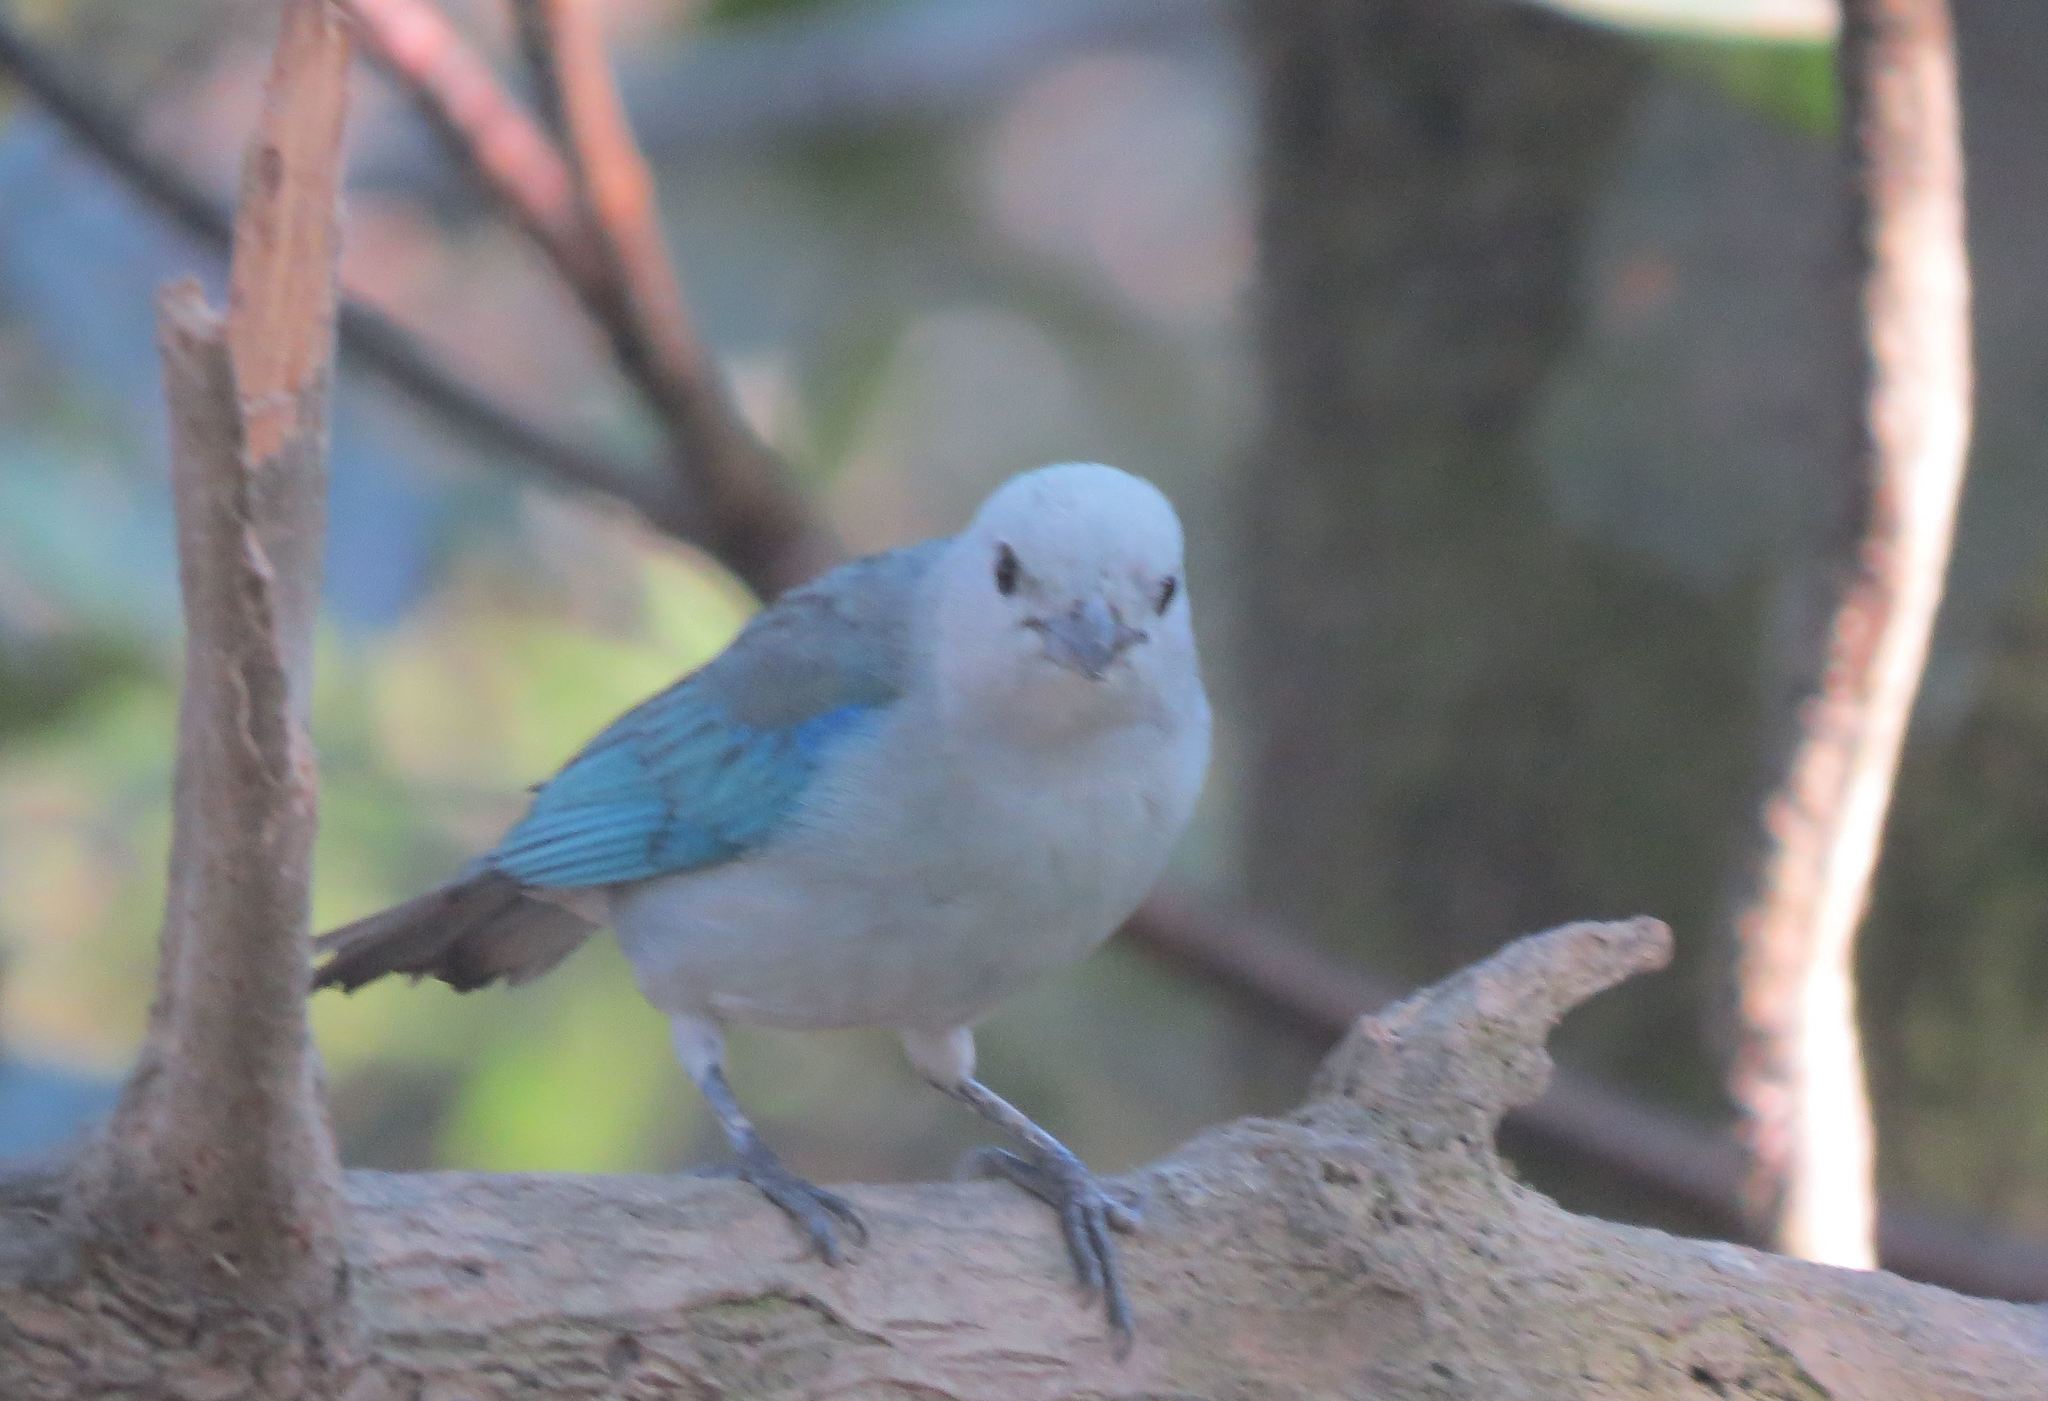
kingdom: Animalia
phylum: Chordata
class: Aves
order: Passeriformes
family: Thraupidae
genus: Thraupis
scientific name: Thraupis episcopus
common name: Blue-grey tanager
